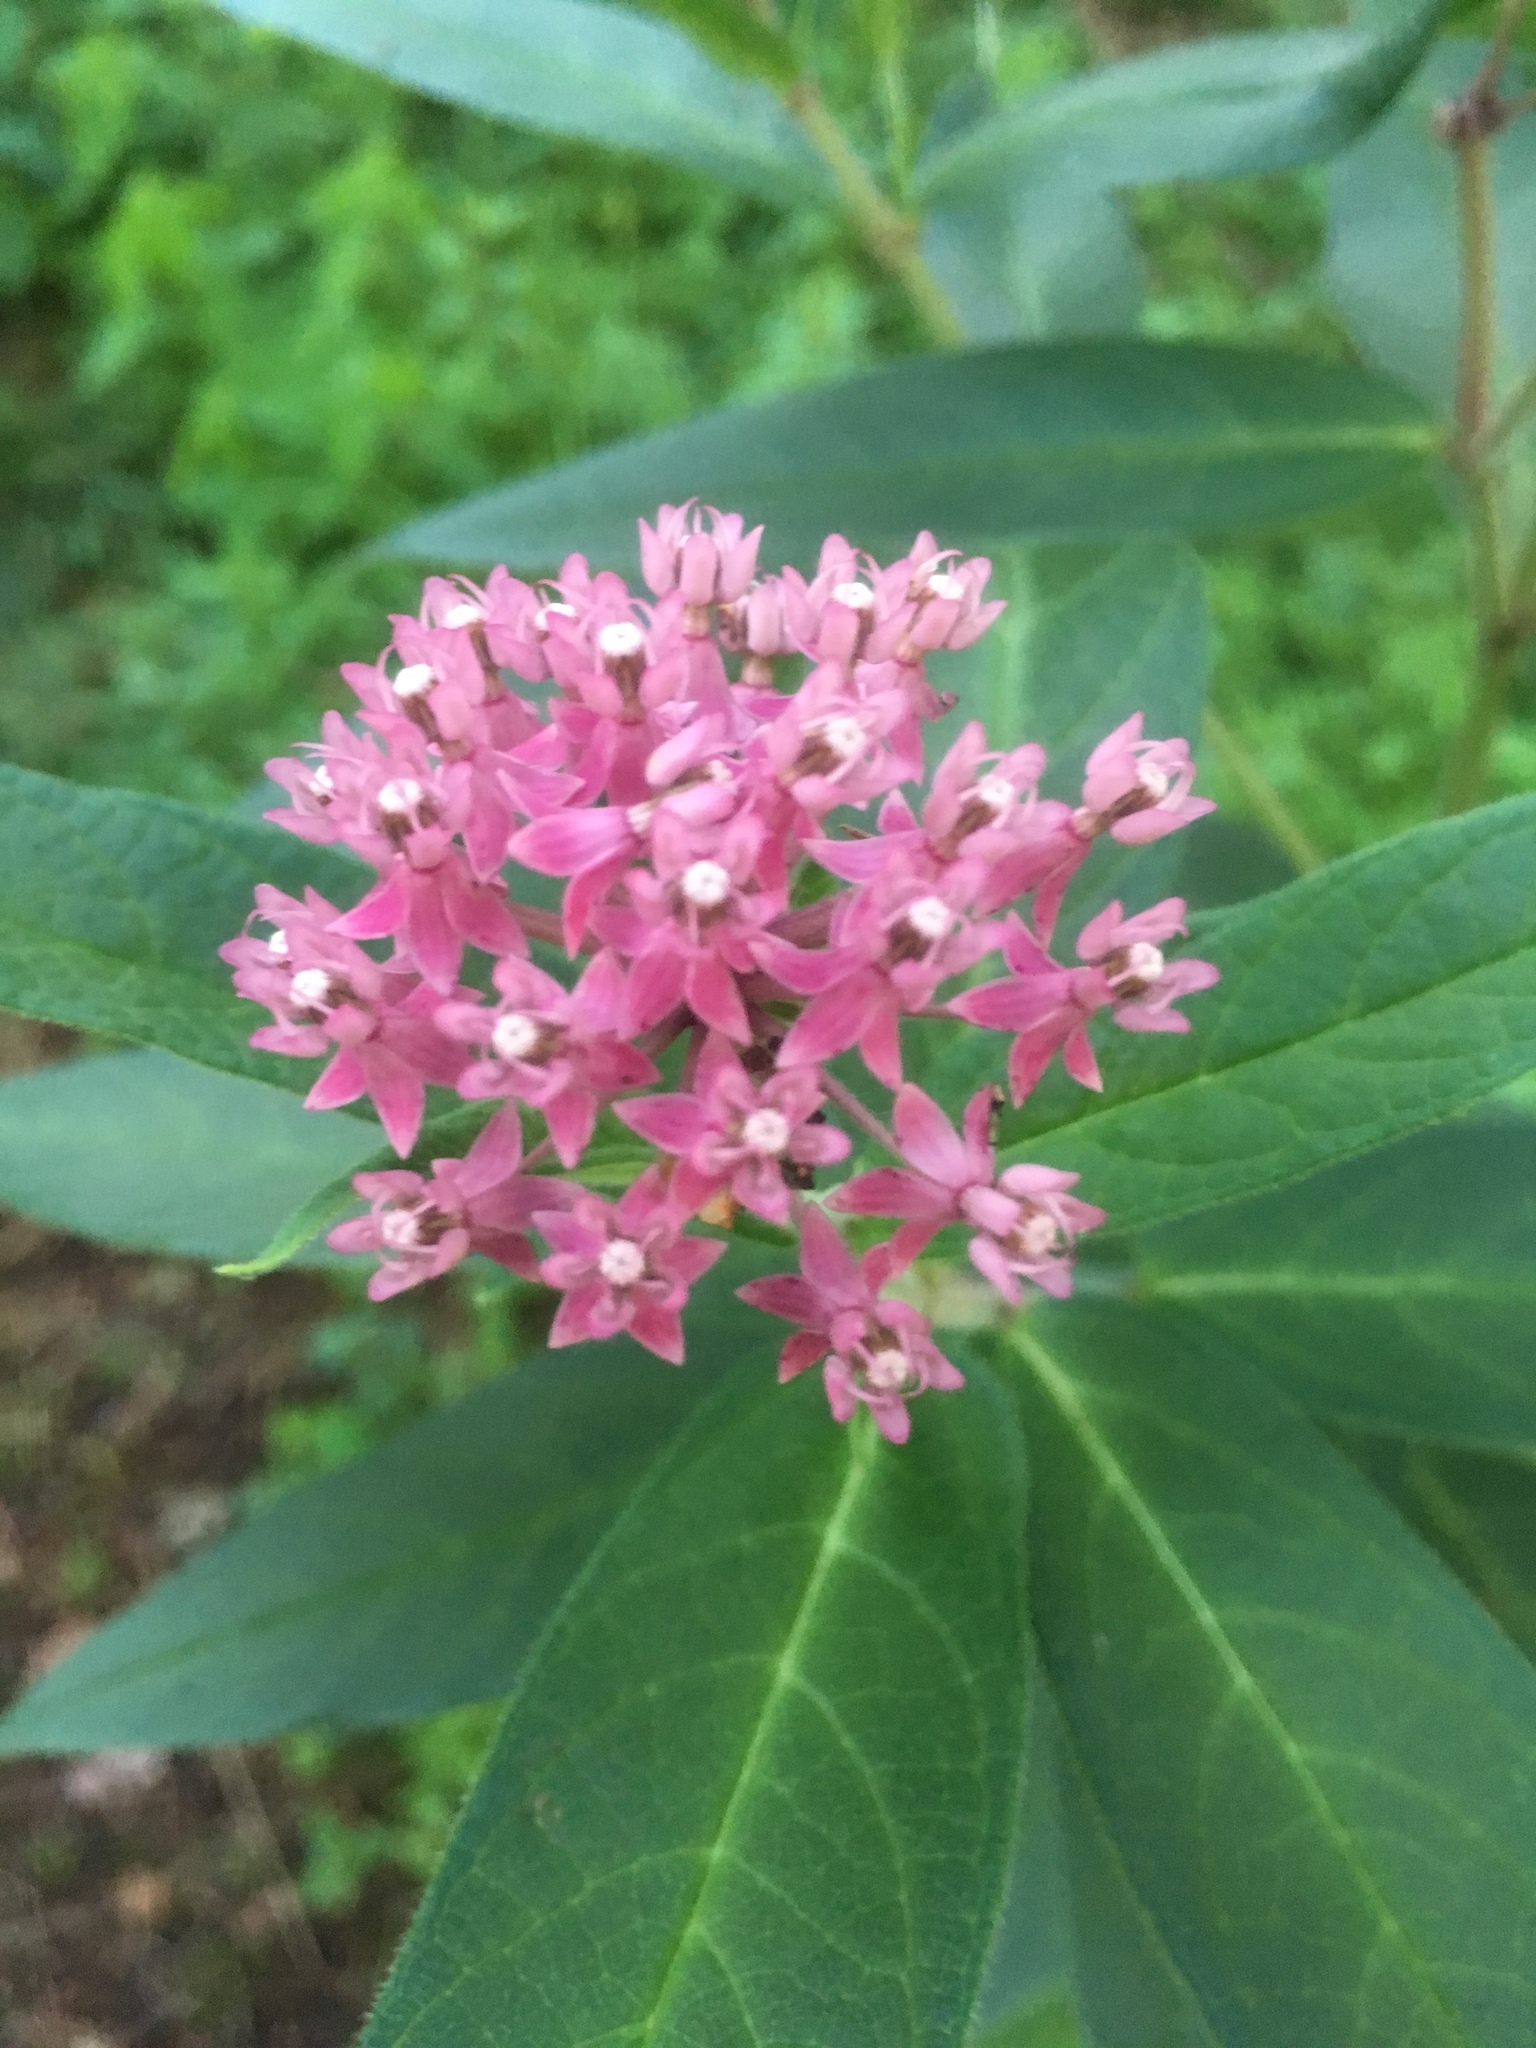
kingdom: Plantae
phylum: Tracheophyta
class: Magnoliopsida
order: Gentianales
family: Apocynaceae
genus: Asclepias
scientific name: Asclepias incarnata
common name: Swamp milkweed
